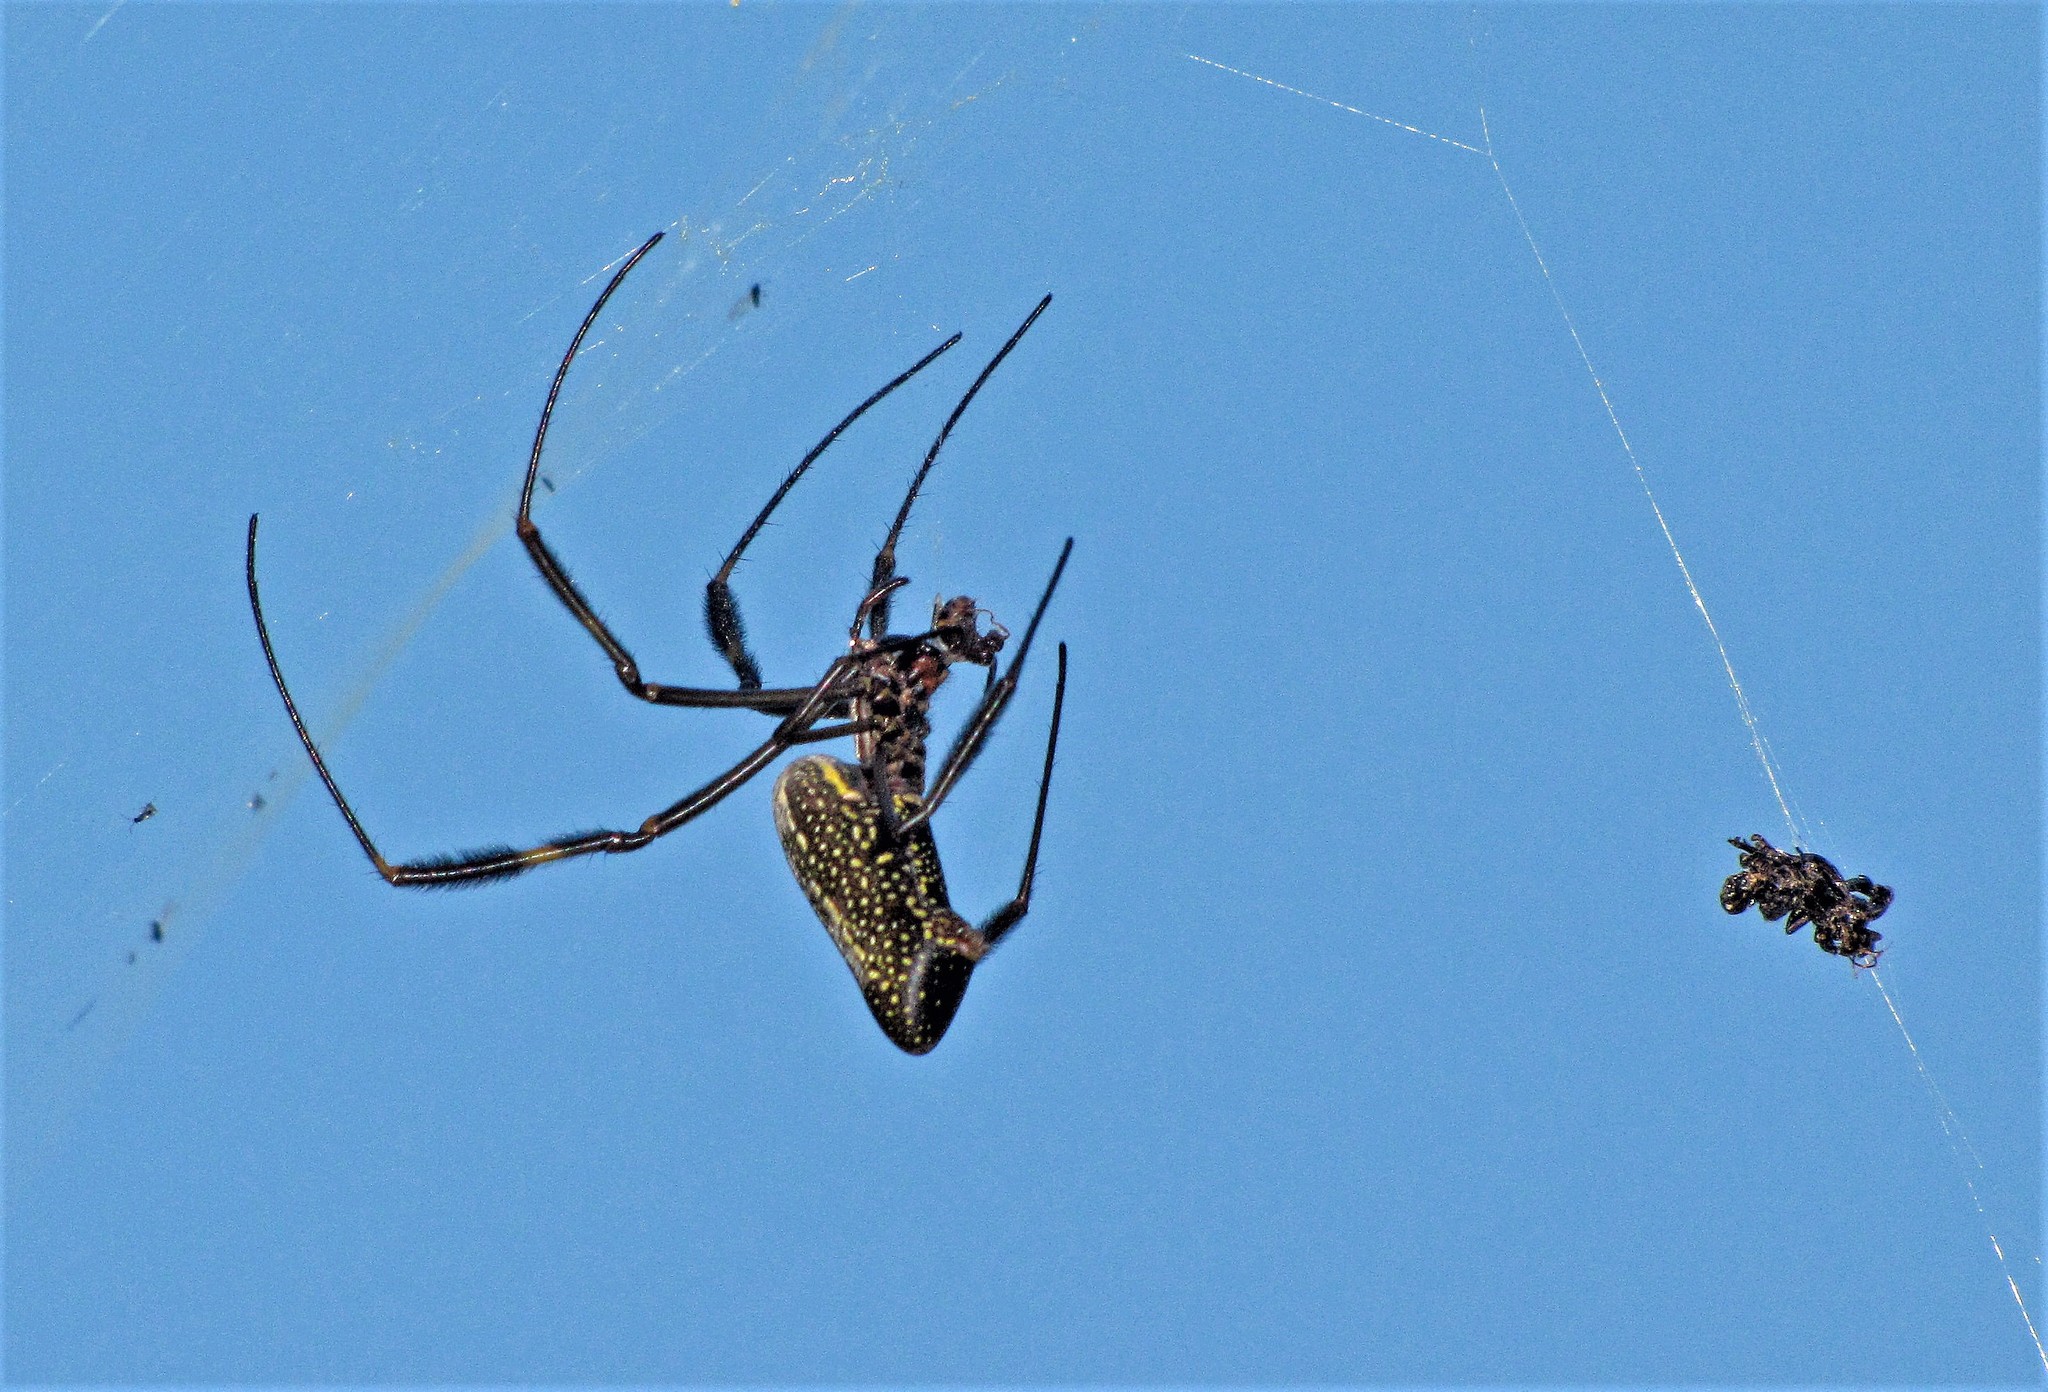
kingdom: Animalia
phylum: Arthropoda
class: Arachnida
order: Araneae
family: Araneidae
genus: Trichonephila
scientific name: Trichonephila clavipes
